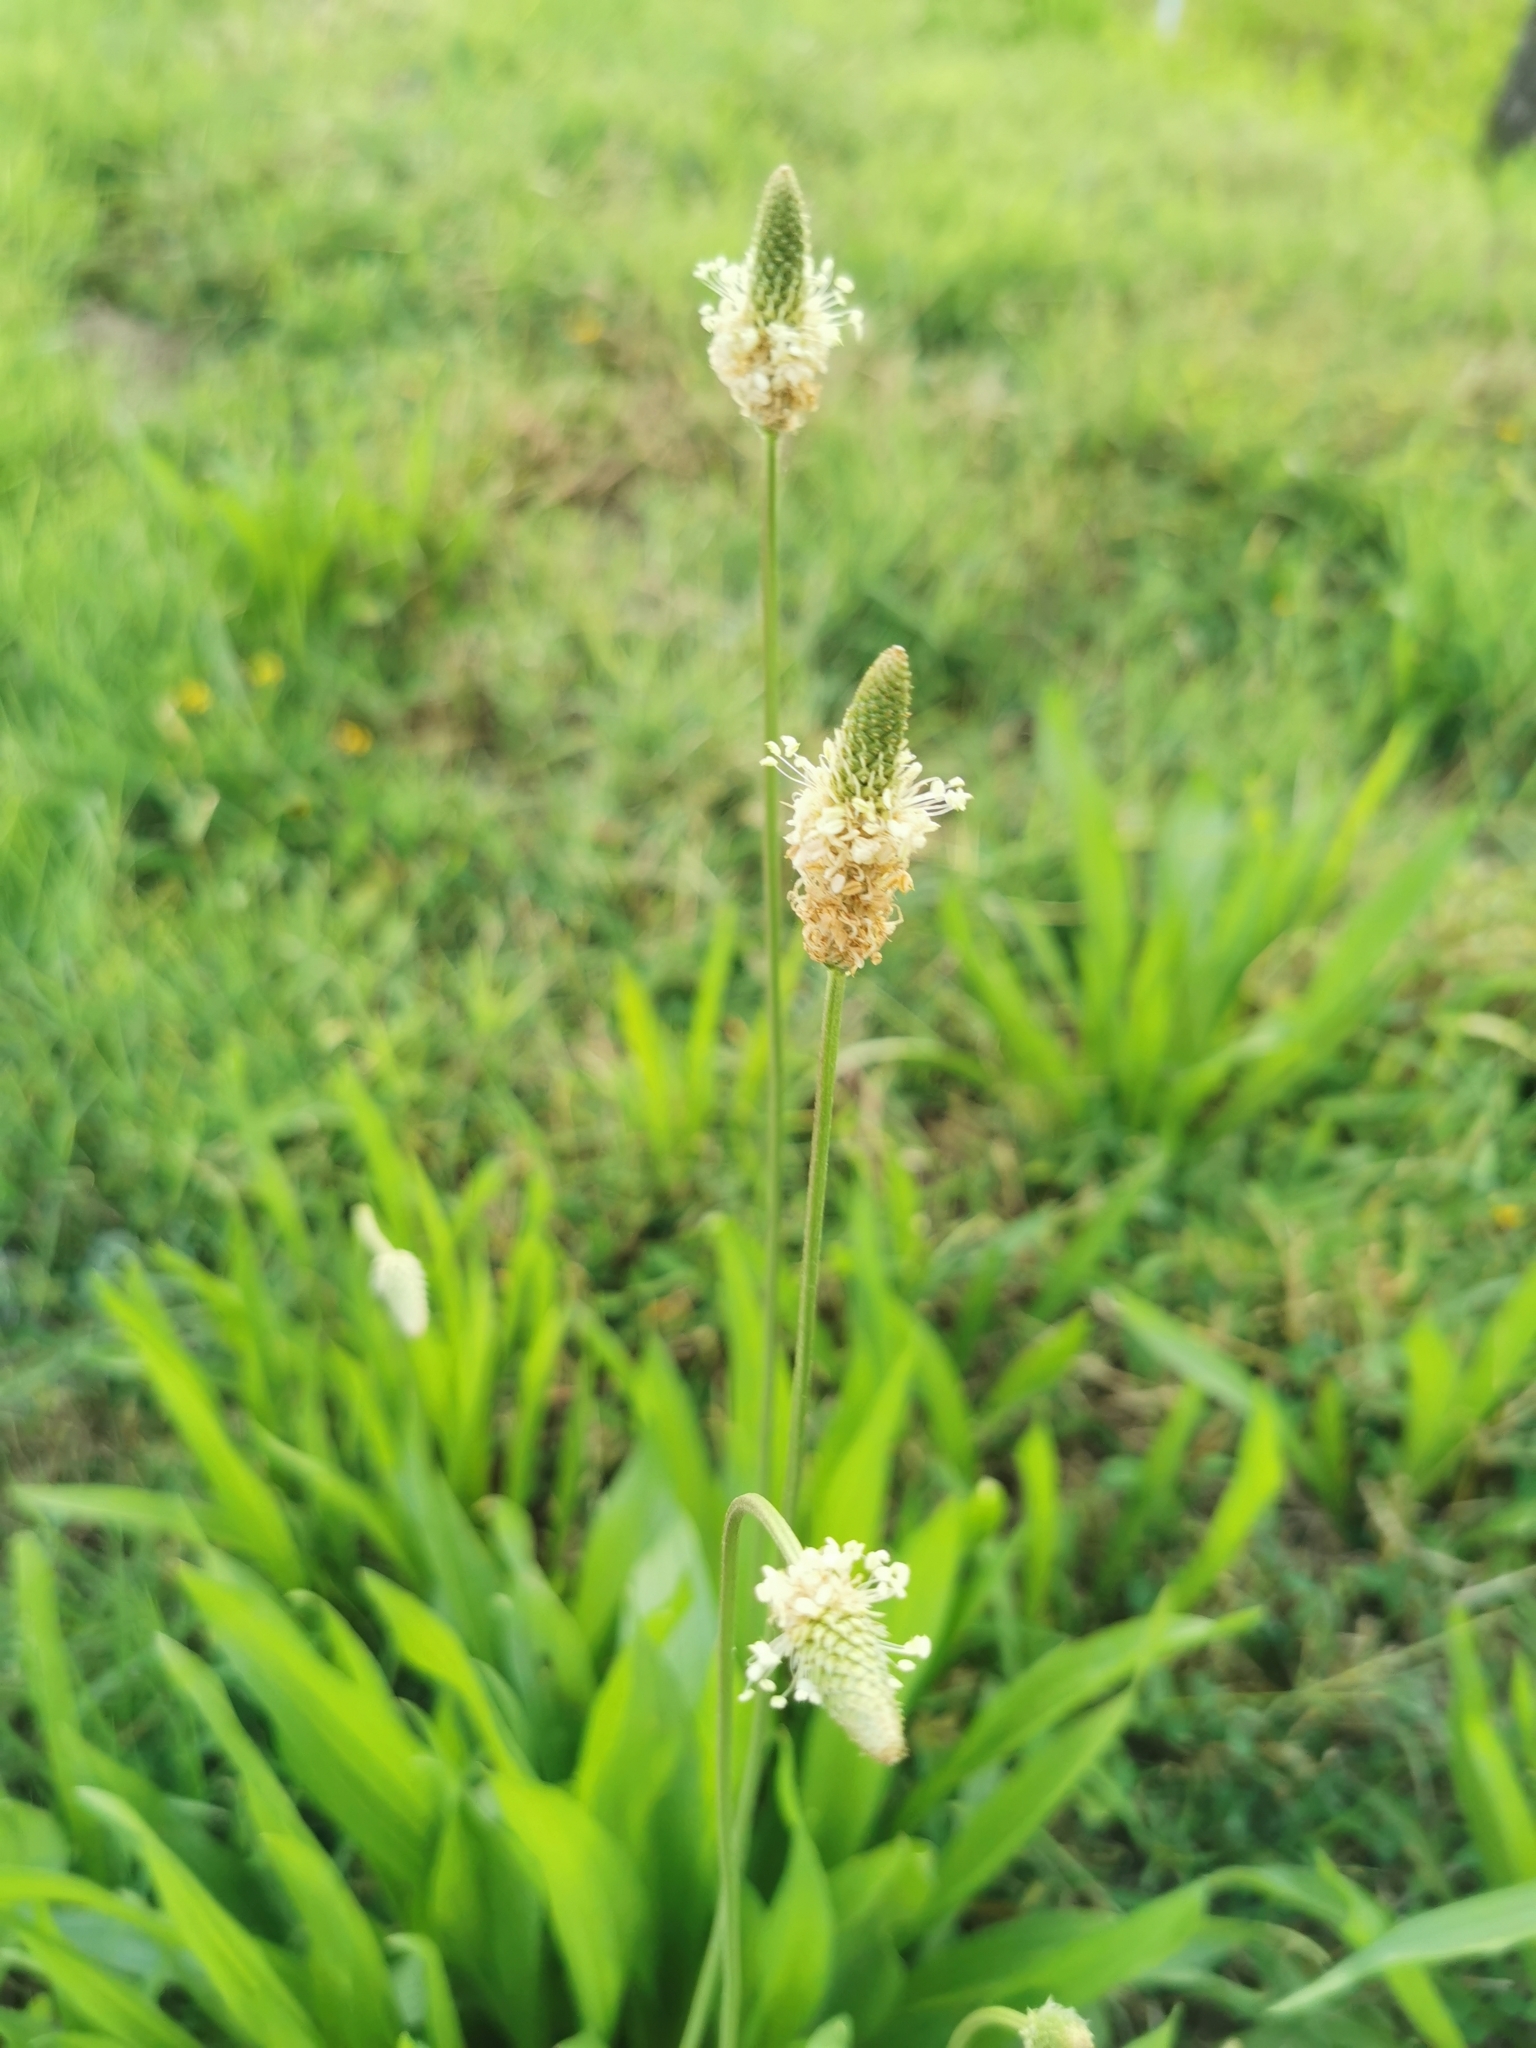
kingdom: Plantae
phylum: Tracheophyta
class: Magnoliopsida
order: Lamiales
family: Plantaginaceae
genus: Plantago
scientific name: Plantago lanceolata
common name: Ribwort plantain
